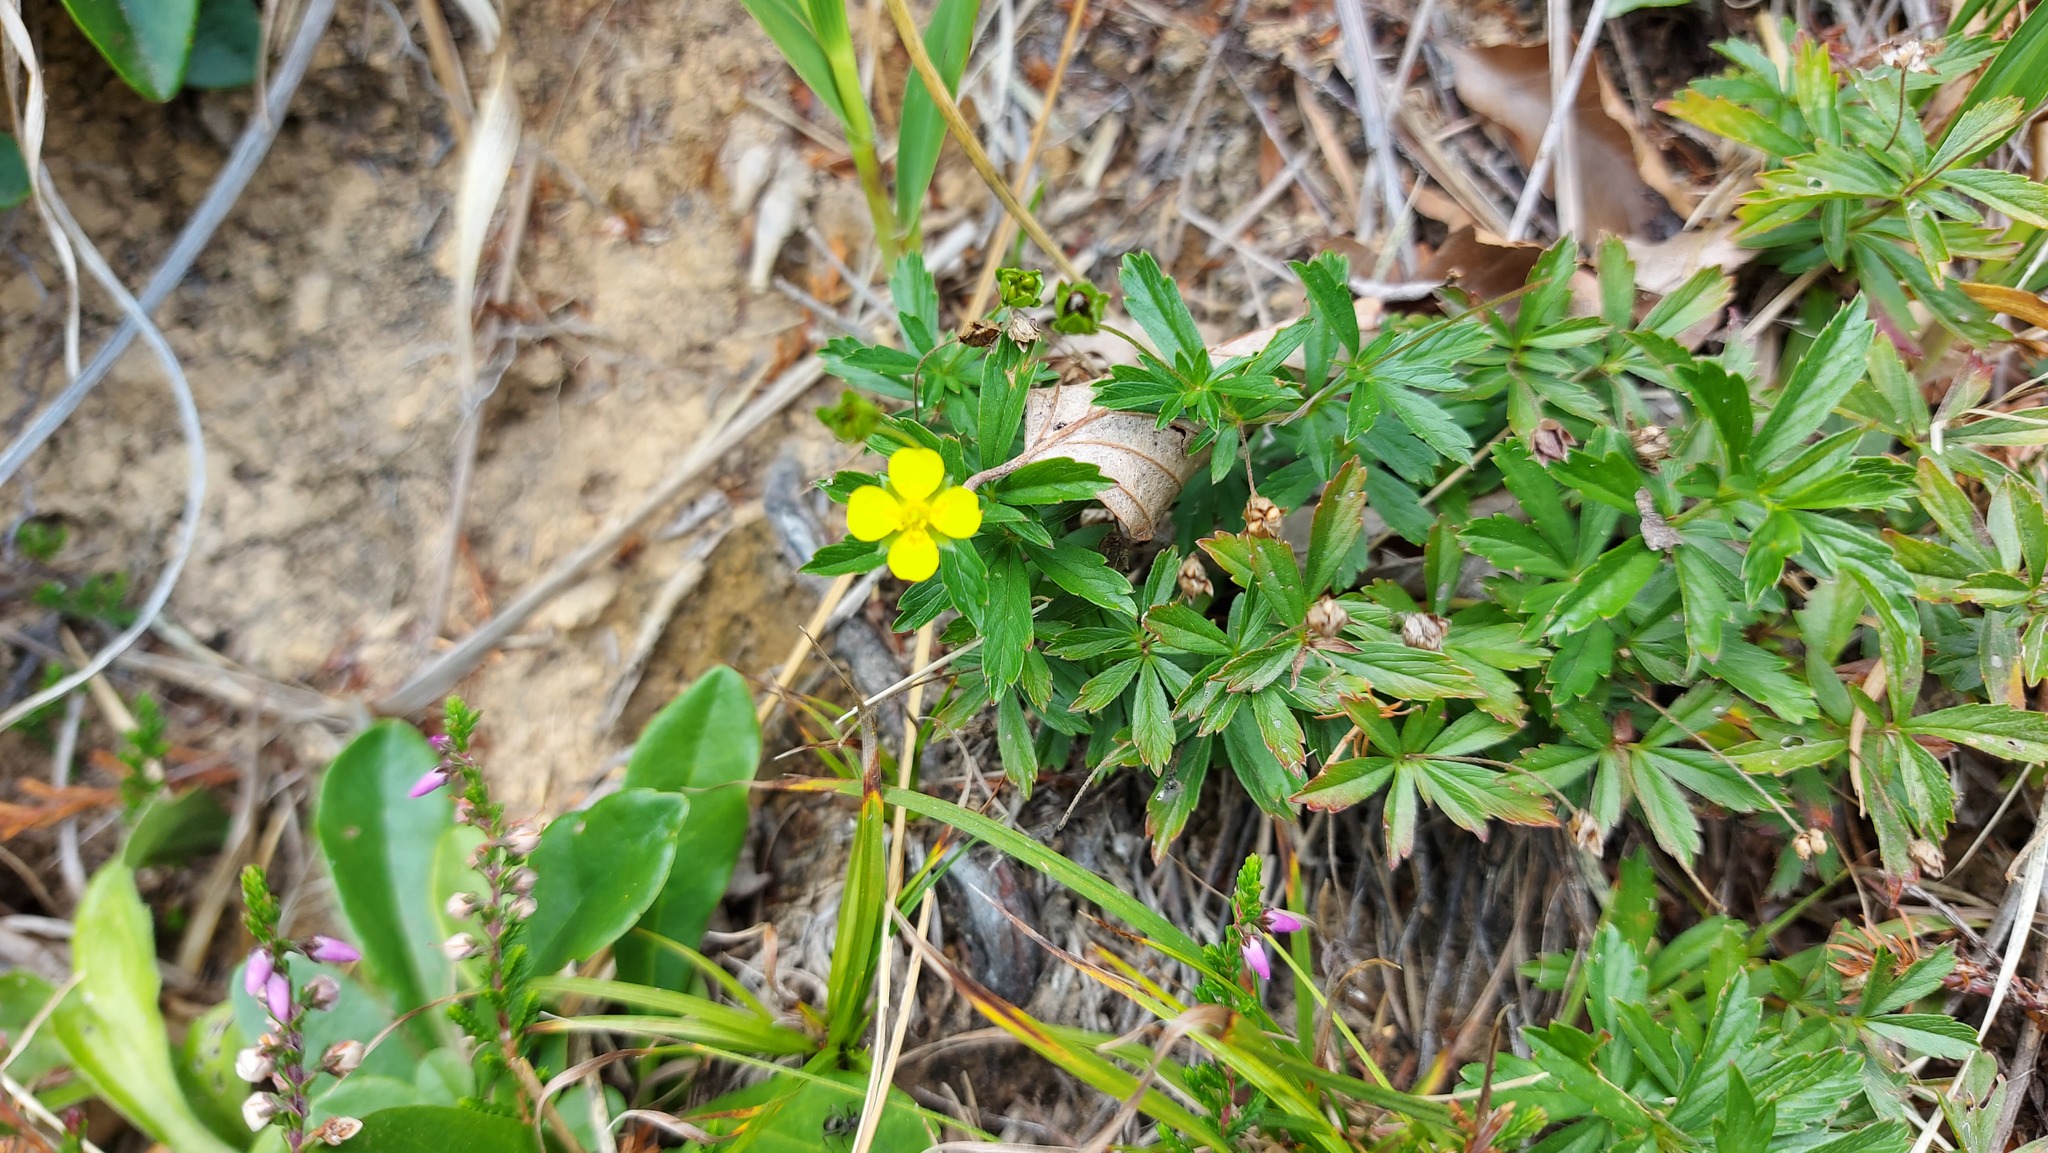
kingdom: Plantae
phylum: Tracheophyta
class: Magnoliopsida
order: Rosales
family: Rosaceae
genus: Potentilla
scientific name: Potentilla erecta
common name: Tormentil
